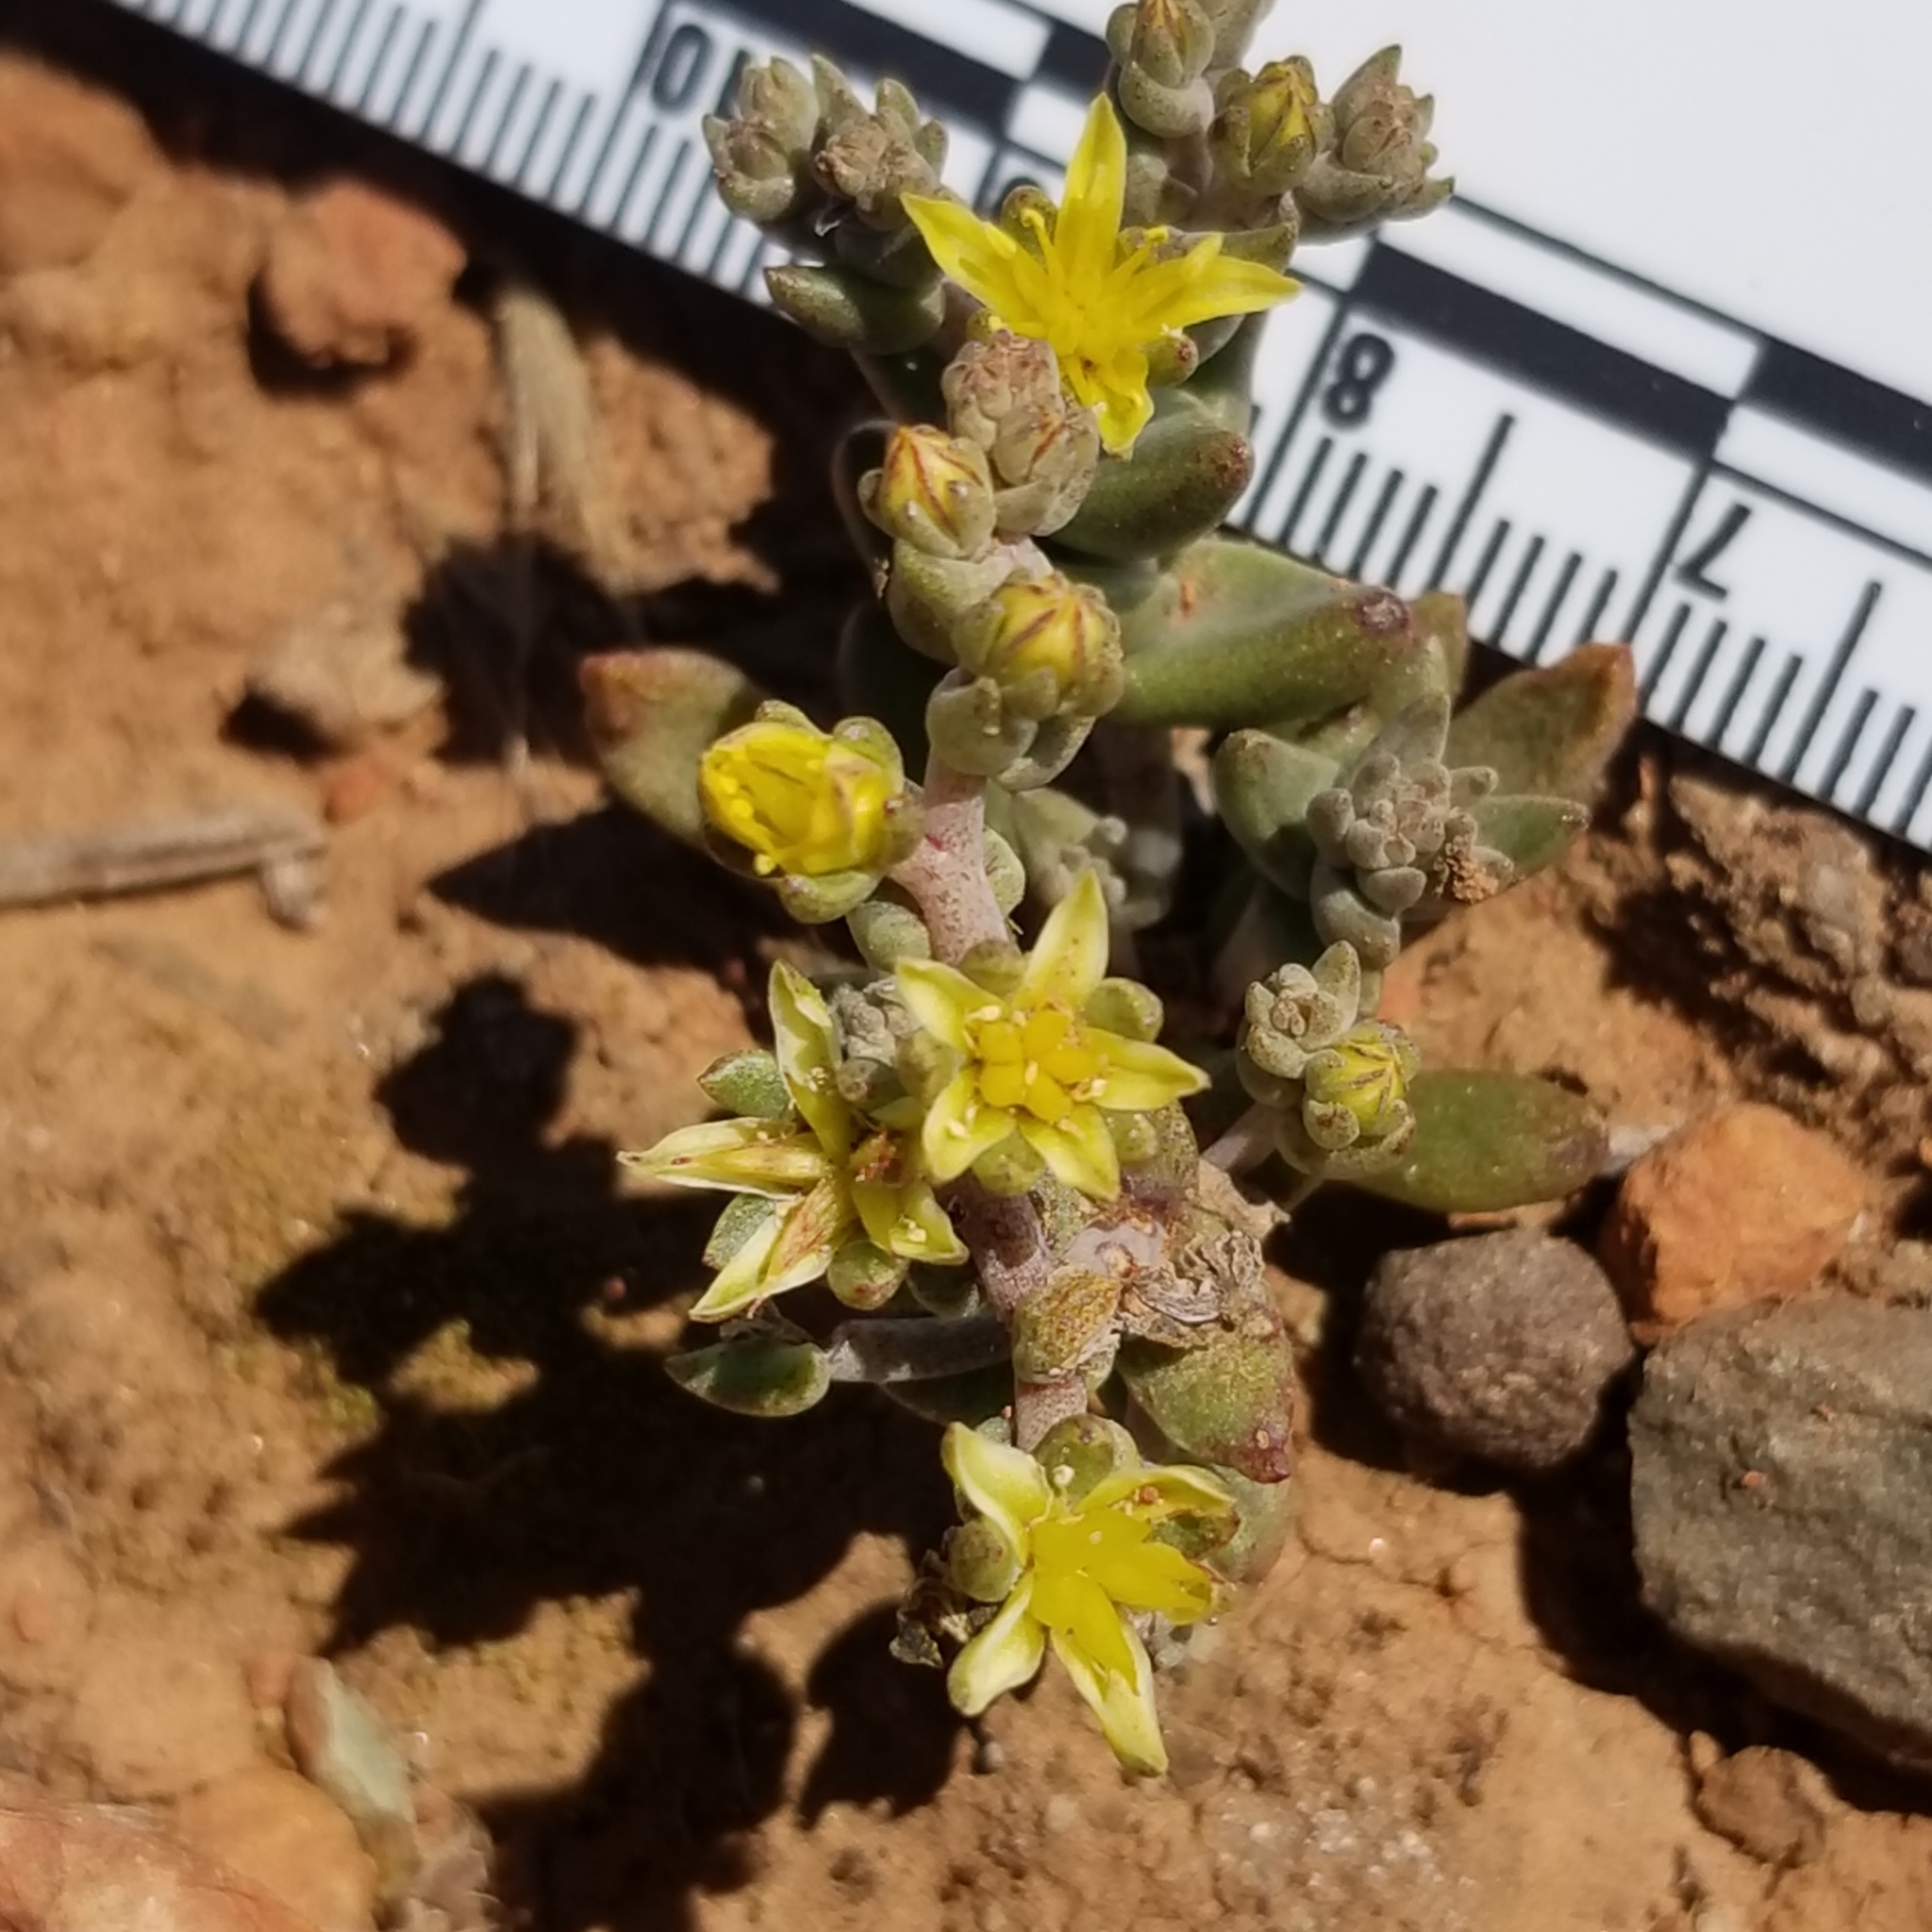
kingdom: Plantae
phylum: Tracheophyta
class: Magnoliopsida
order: Saxifragales
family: Crassulaceae
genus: Dudleya
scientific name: Dudleya variegata
